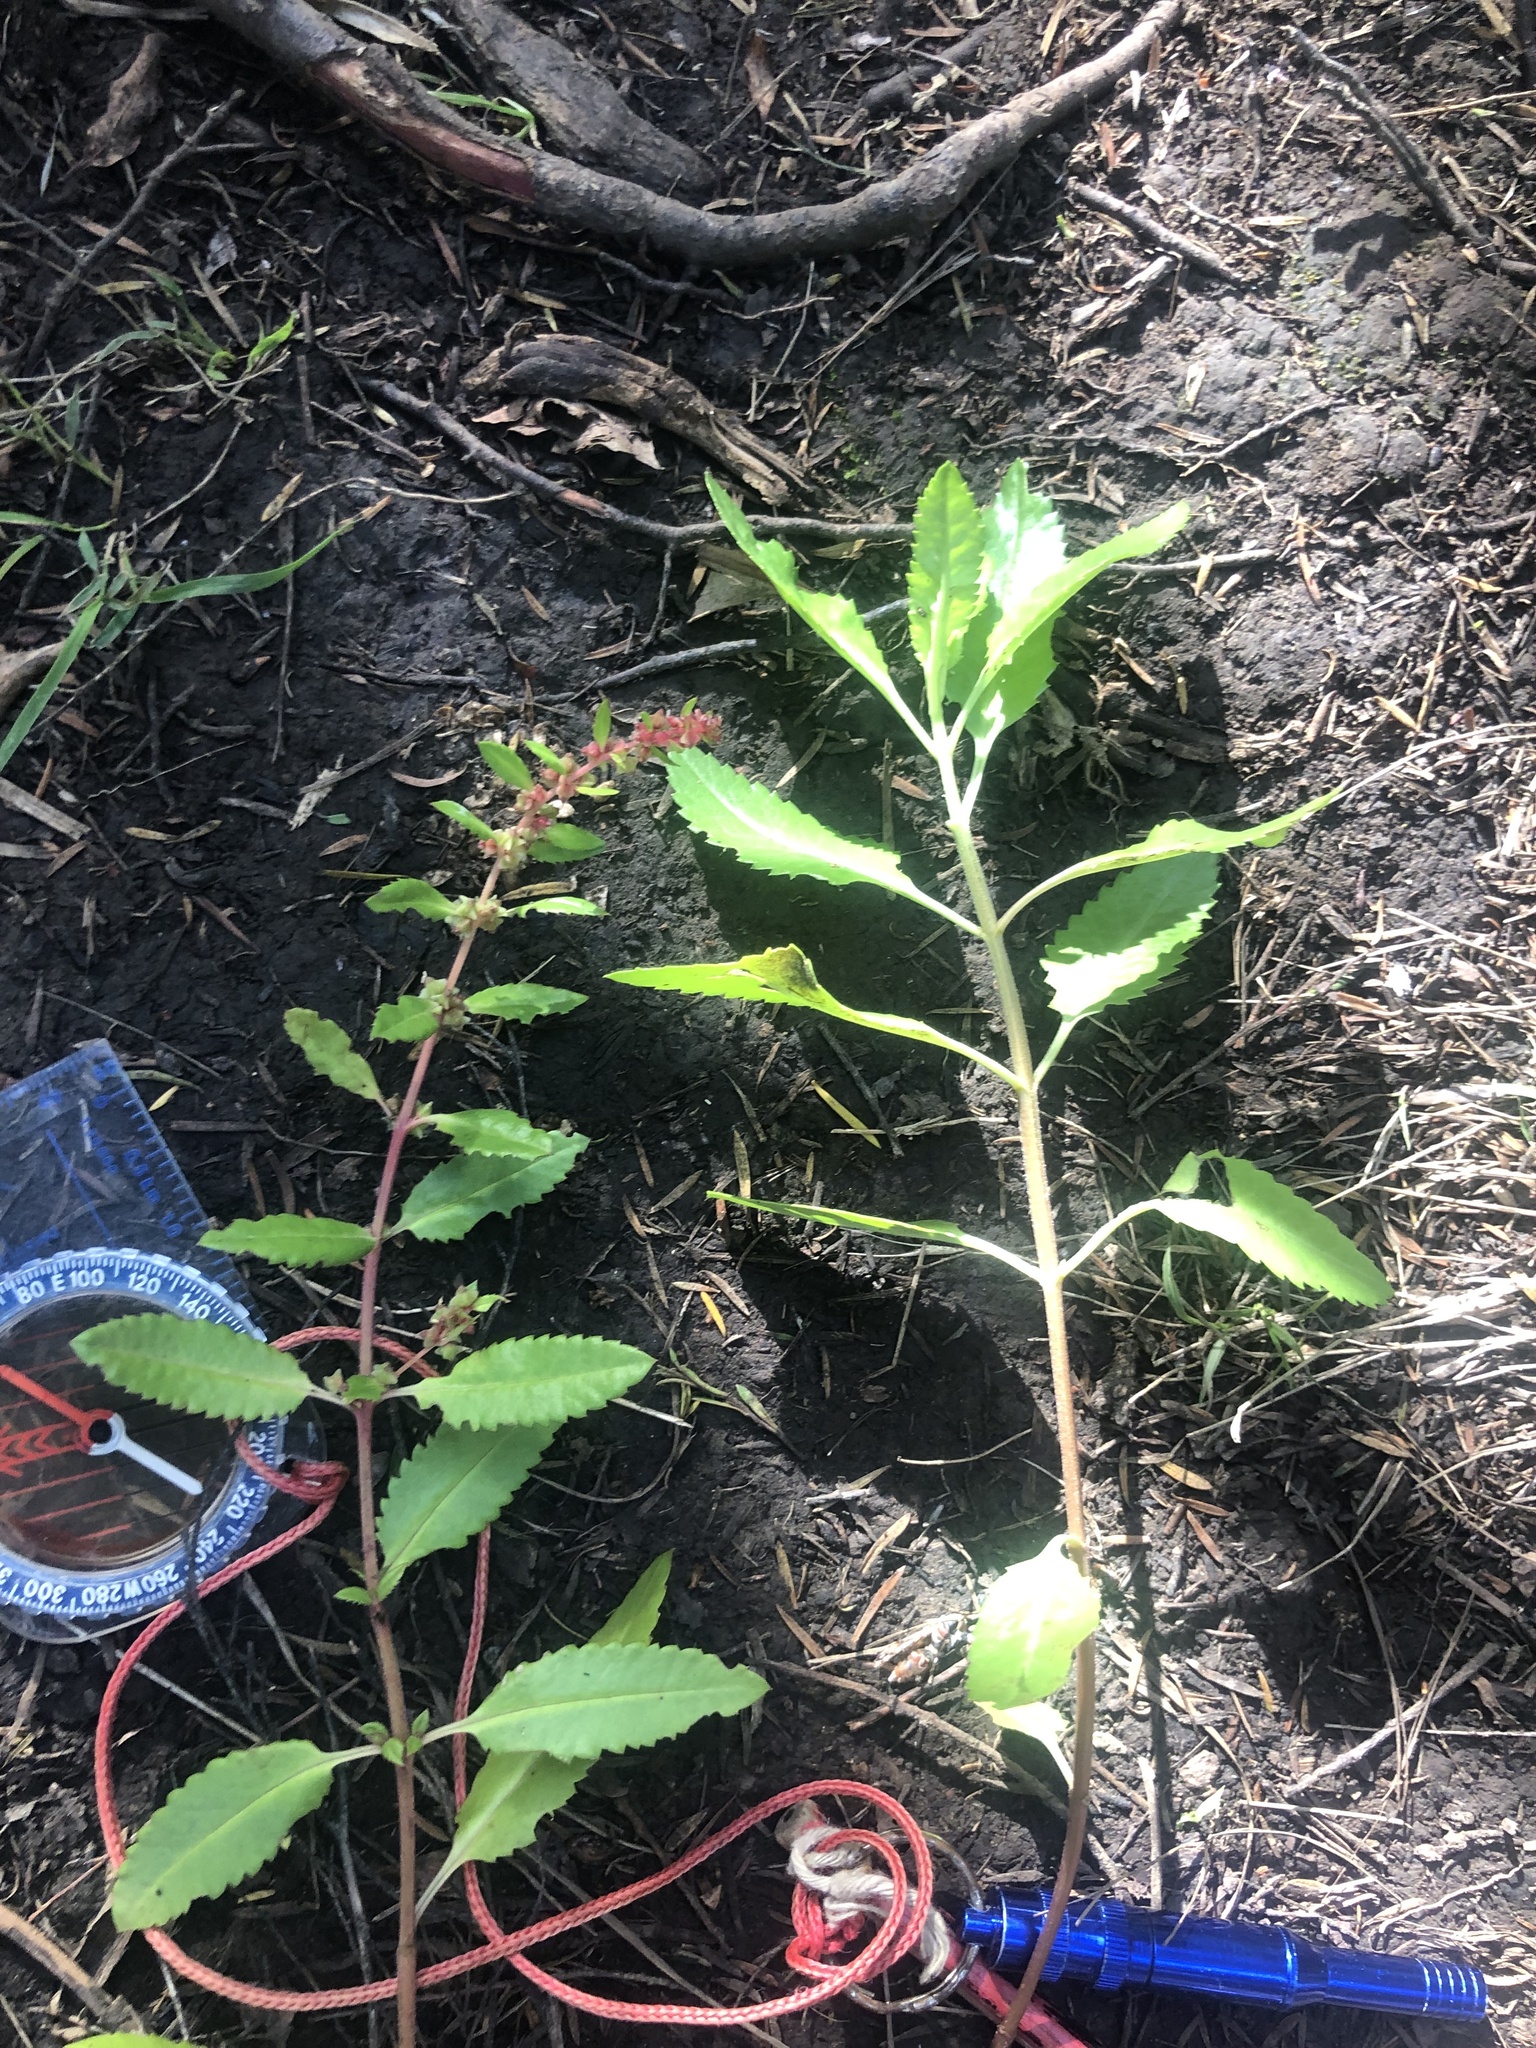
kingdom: Plantae
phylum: Tracheophyta
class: Magnoliopsida
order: Saxifragales
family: Haloragaceae
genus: Haloragis
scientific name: Haloragis erecta
